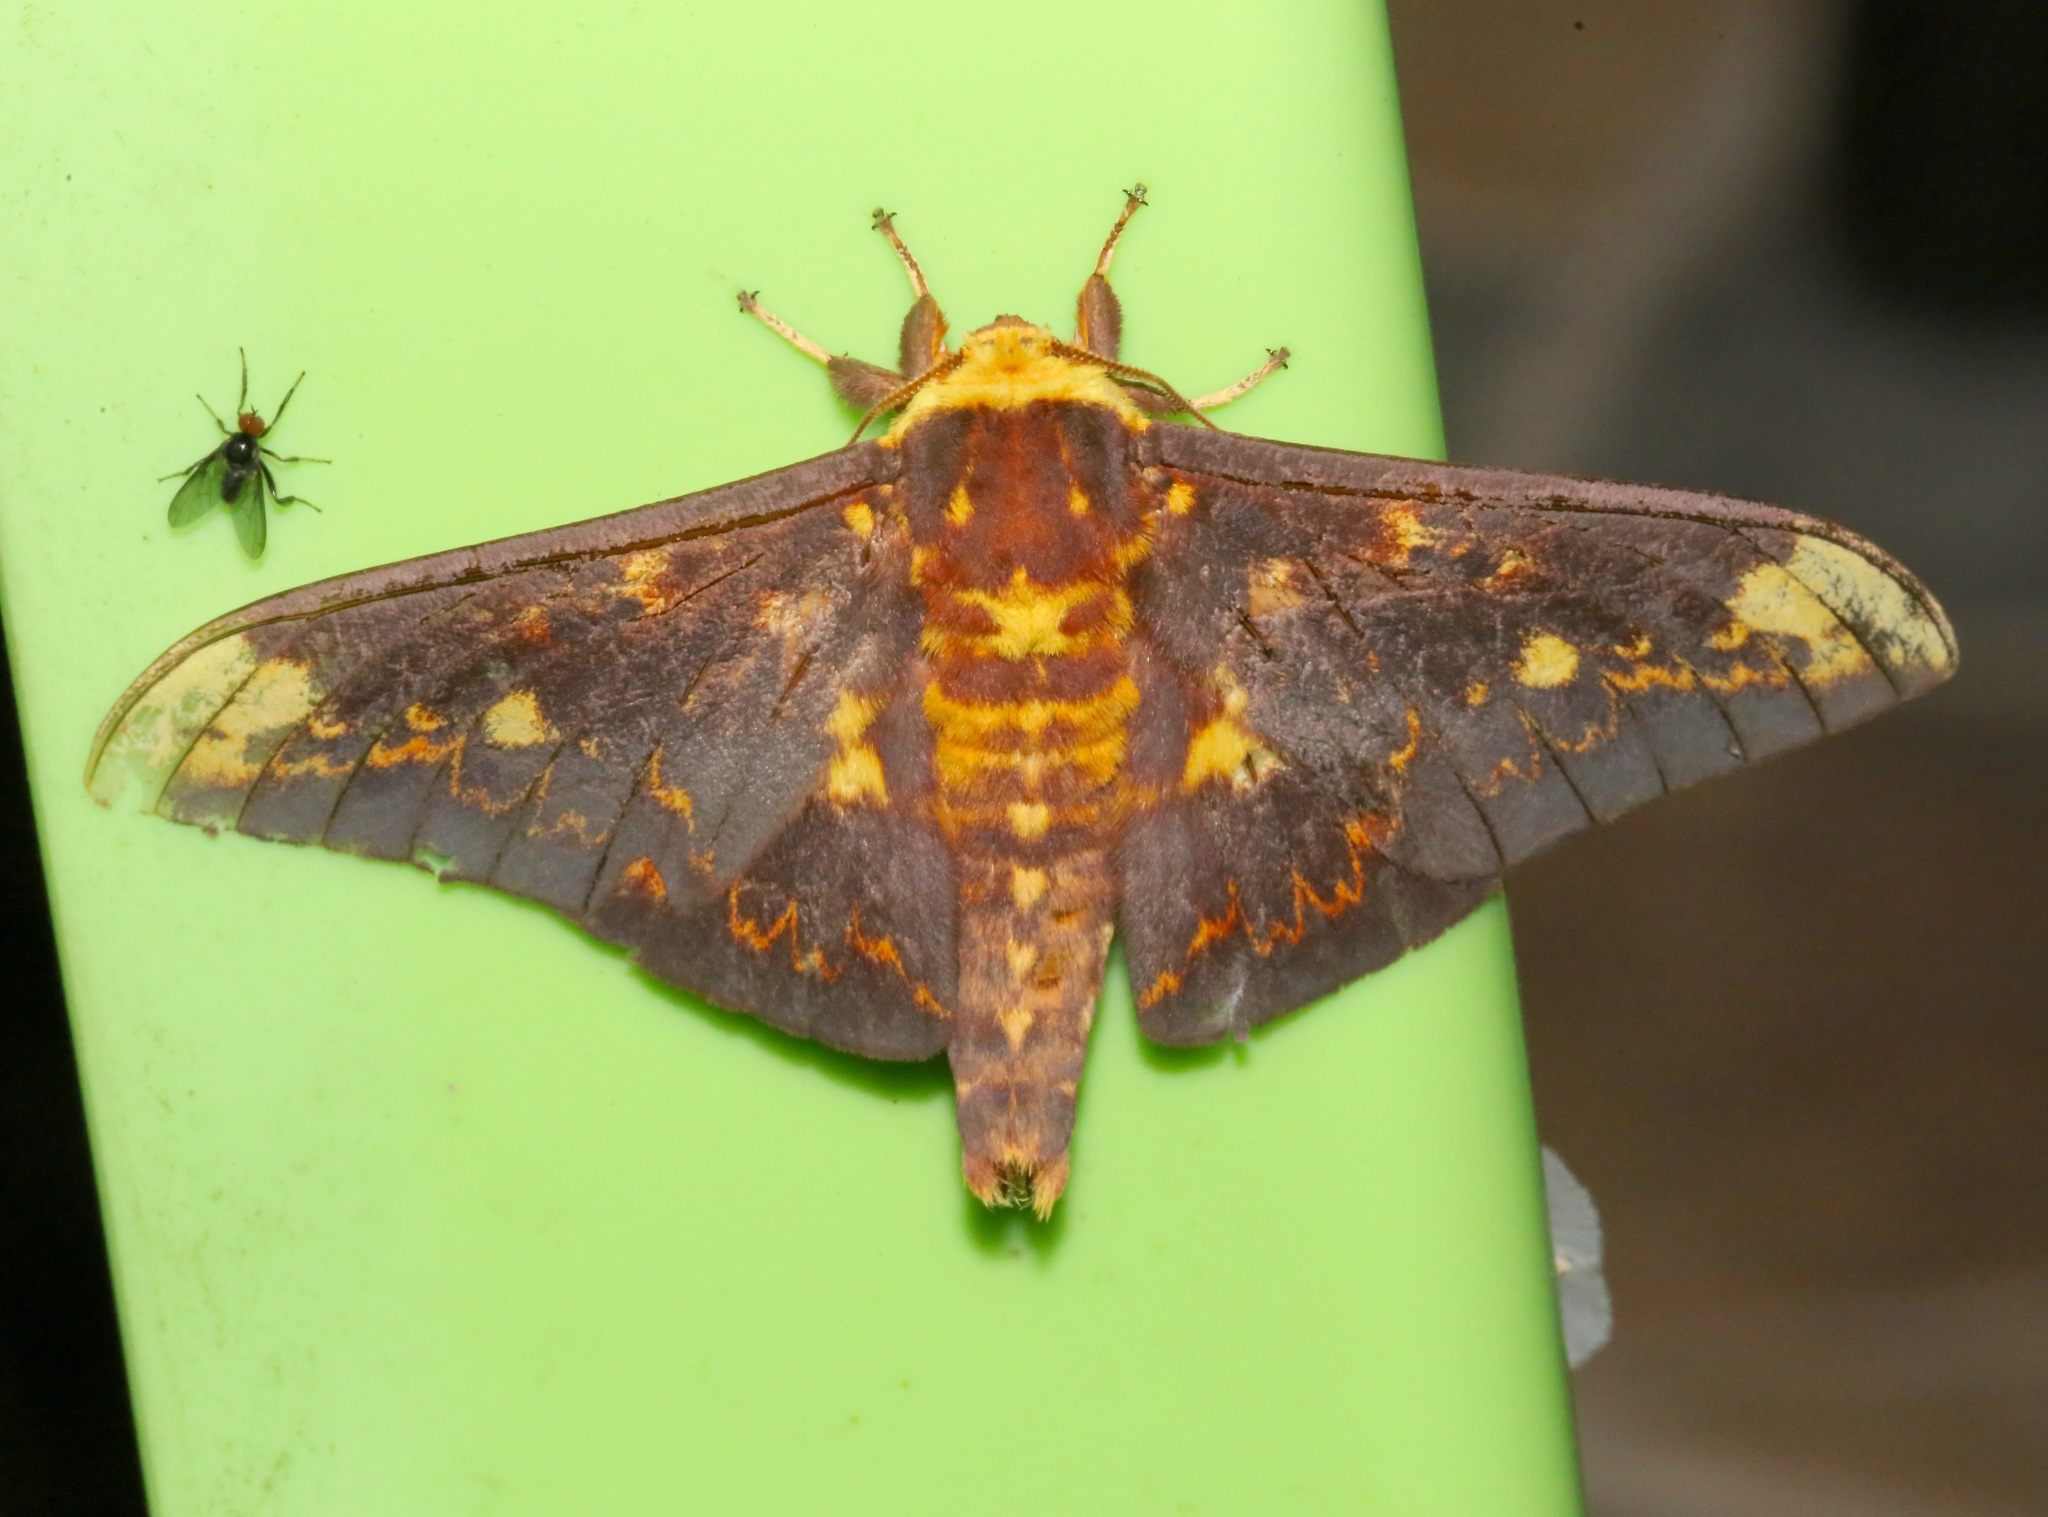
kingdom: Animalia
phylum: Arthropoda
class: Insecta
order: Lepidoptera
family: Saturniidae
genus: Citheronioides
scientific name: Citheronioides collaris
